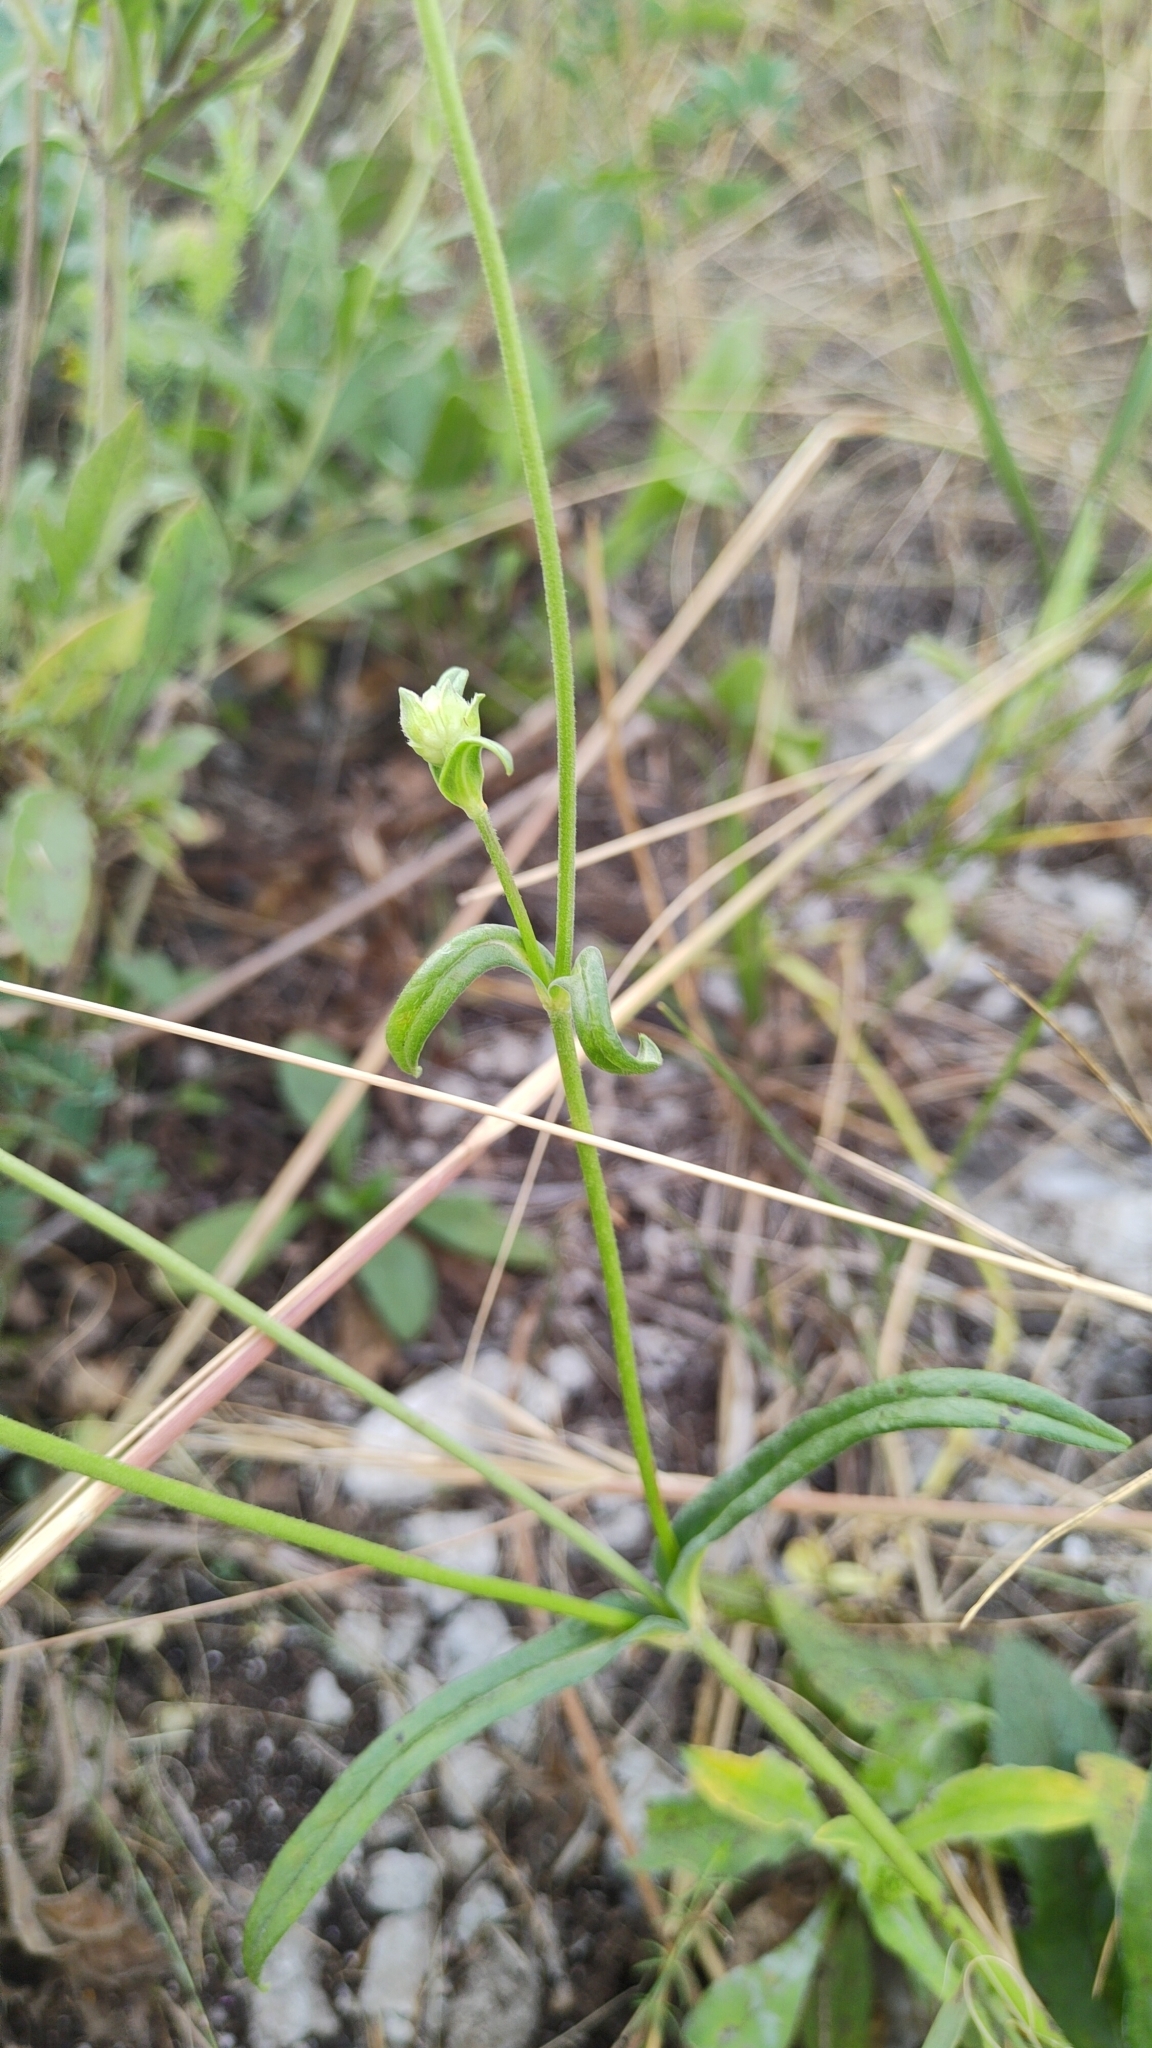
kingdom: Plantae
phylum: Tracheophyta
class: Magnoliopsida
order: Dipsacales
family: Caprifoliaceae
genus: Knautia
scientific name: Knautia arvensis
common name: Field scabiosa
